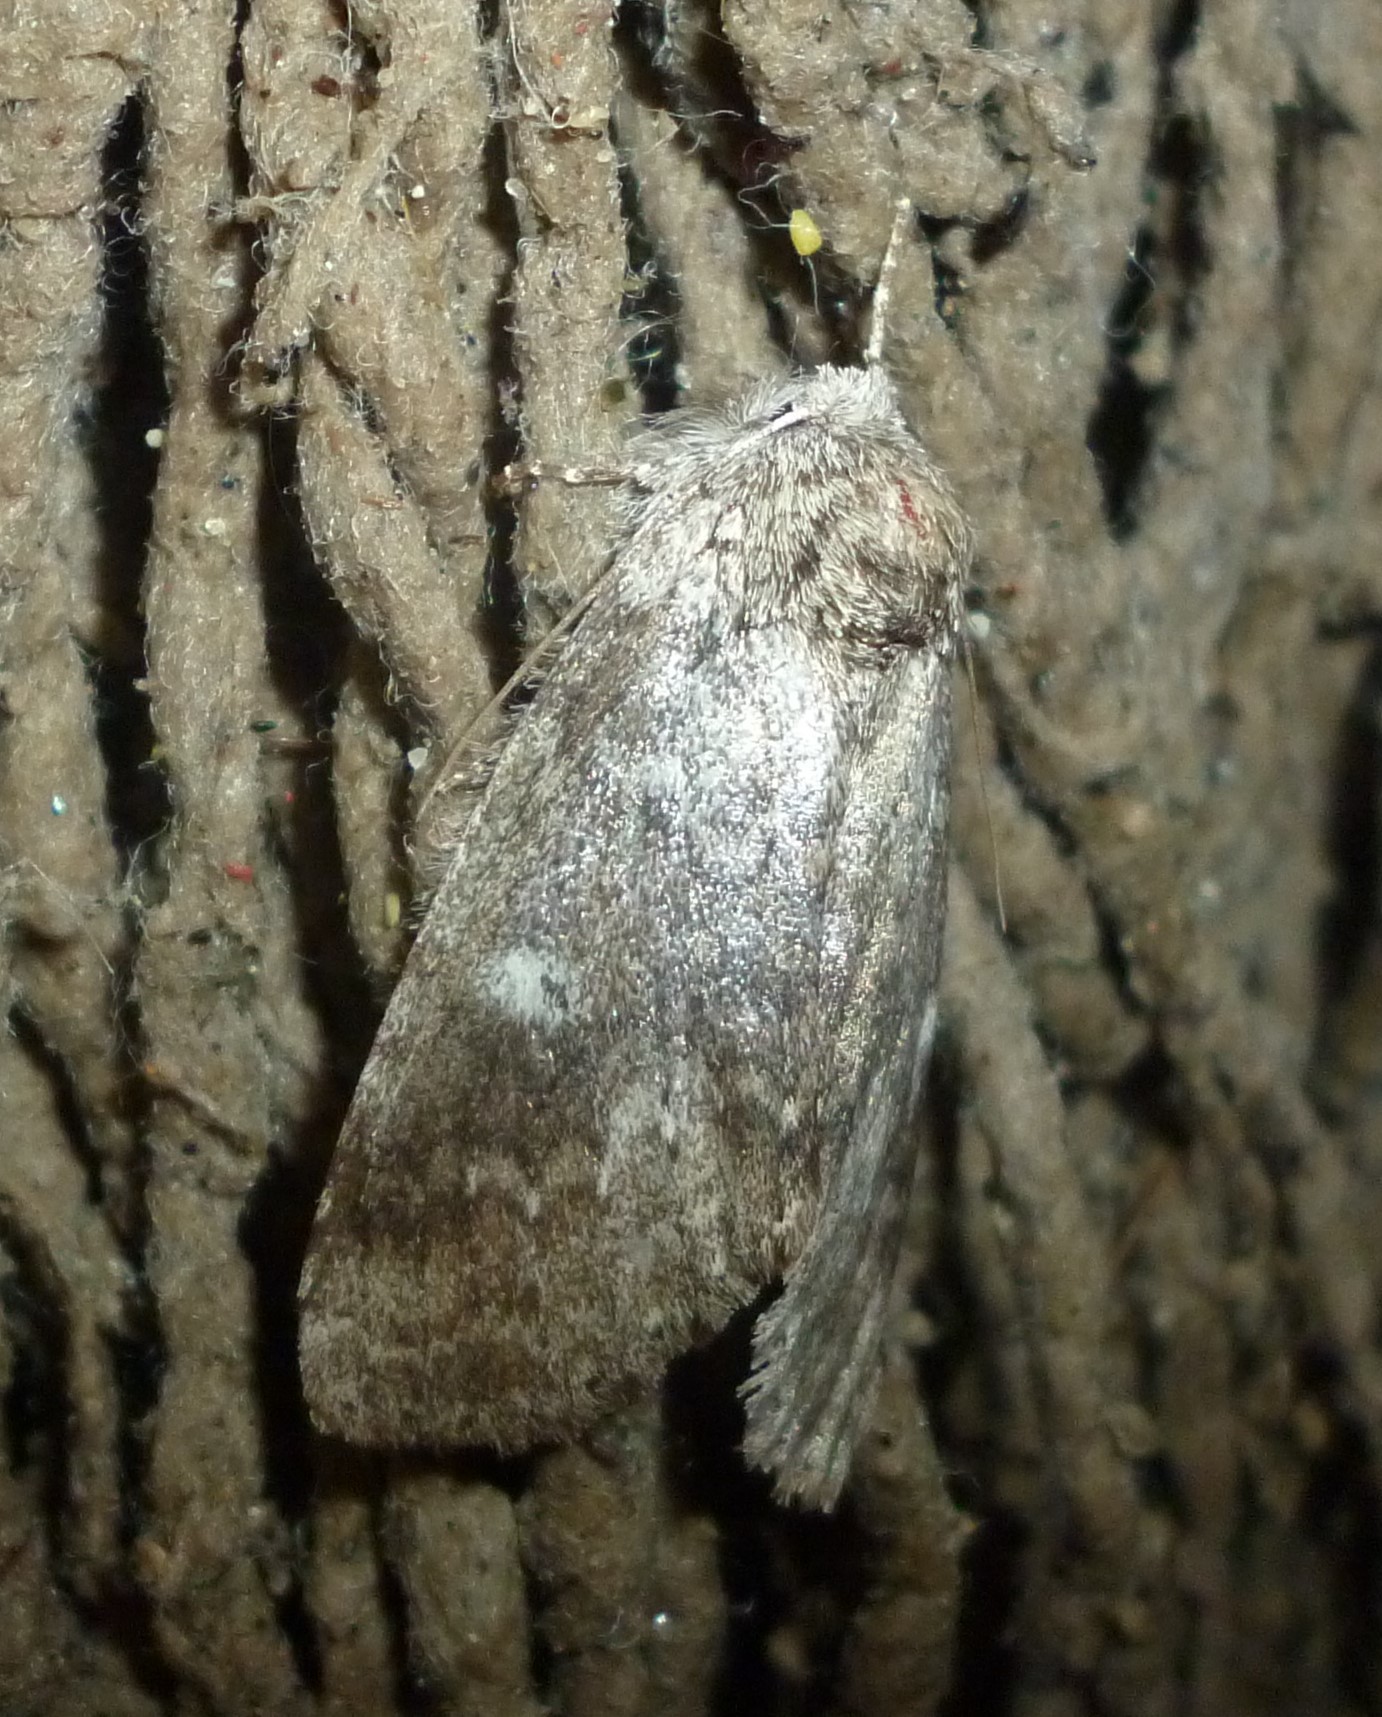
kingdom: Animalia
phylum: Arthropoda
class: Insecta
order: Lepidoptera
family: Notodontidae
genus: Lochmaeus
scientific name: Lochmaeus manteo
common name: Variable oakleaf caterpillar moth
